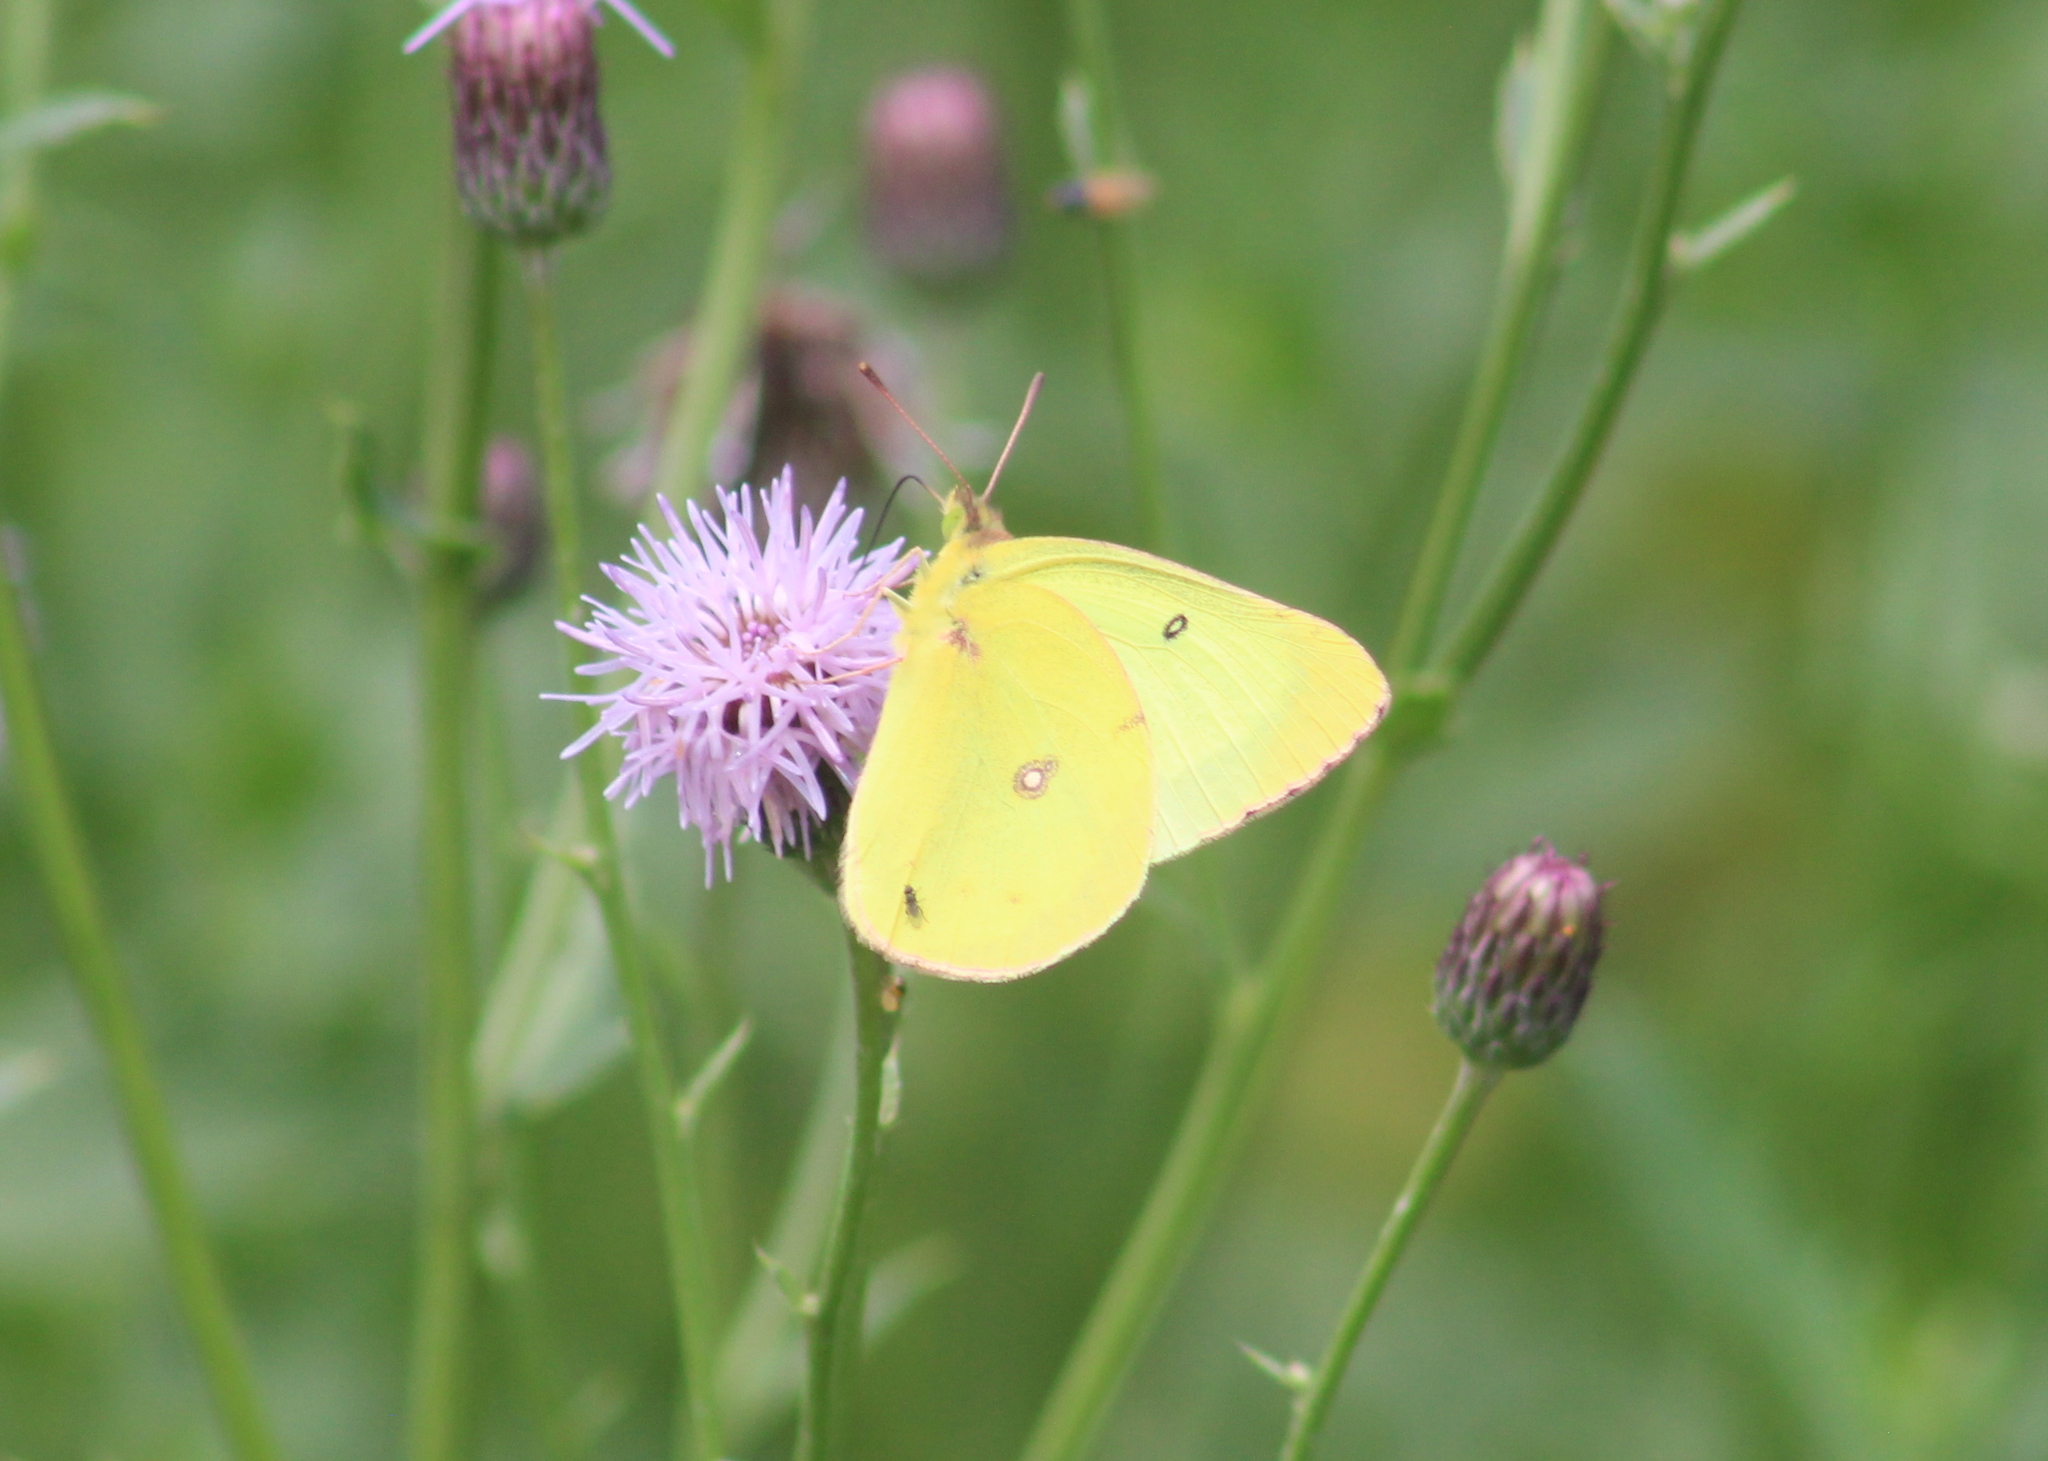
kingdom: Animalia
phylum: Arthropoda
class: Insecta
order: Lepidoptera
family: Pieridae
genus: Colias
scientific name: Colias philodice
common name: Clouded sulphur
